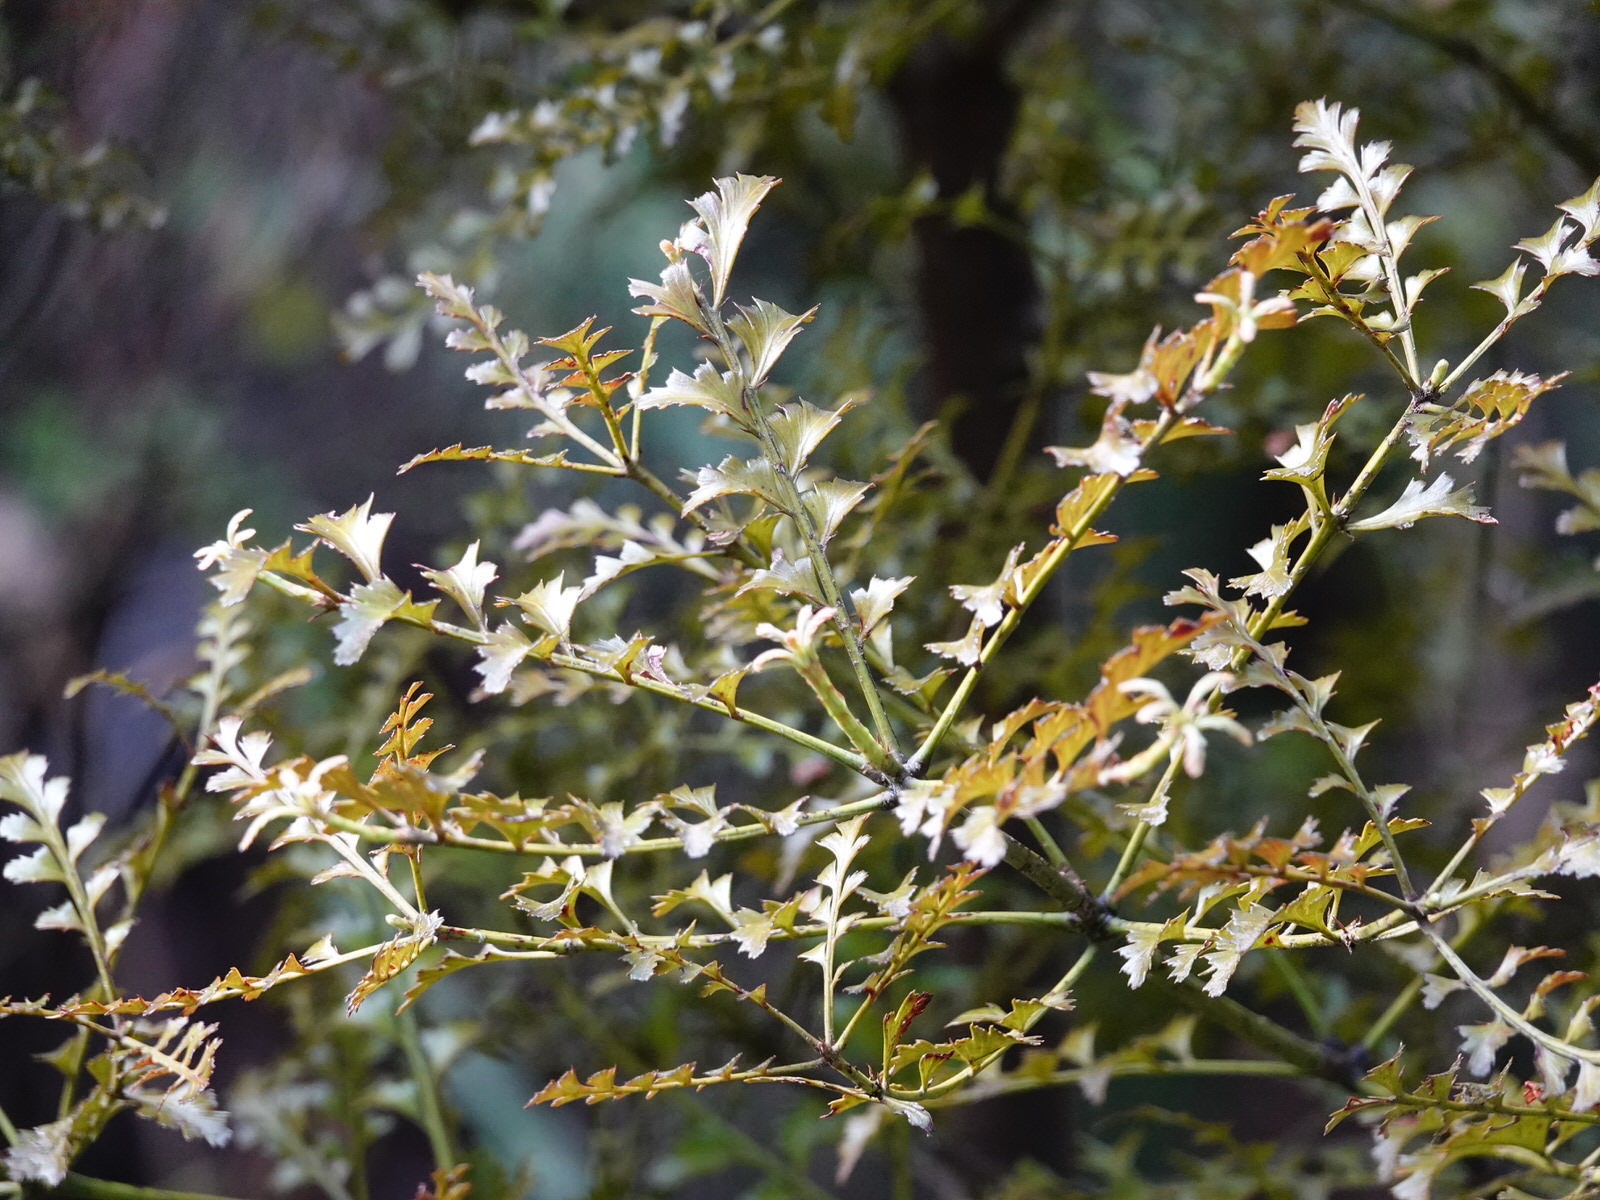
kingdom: Plantae
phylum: Tracheophyta
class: Pinopsida
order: Pinales
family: Phyllocladaceae
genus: Phyllocladus
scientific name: Phyllocladus trichomanoides
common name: Celery pine
